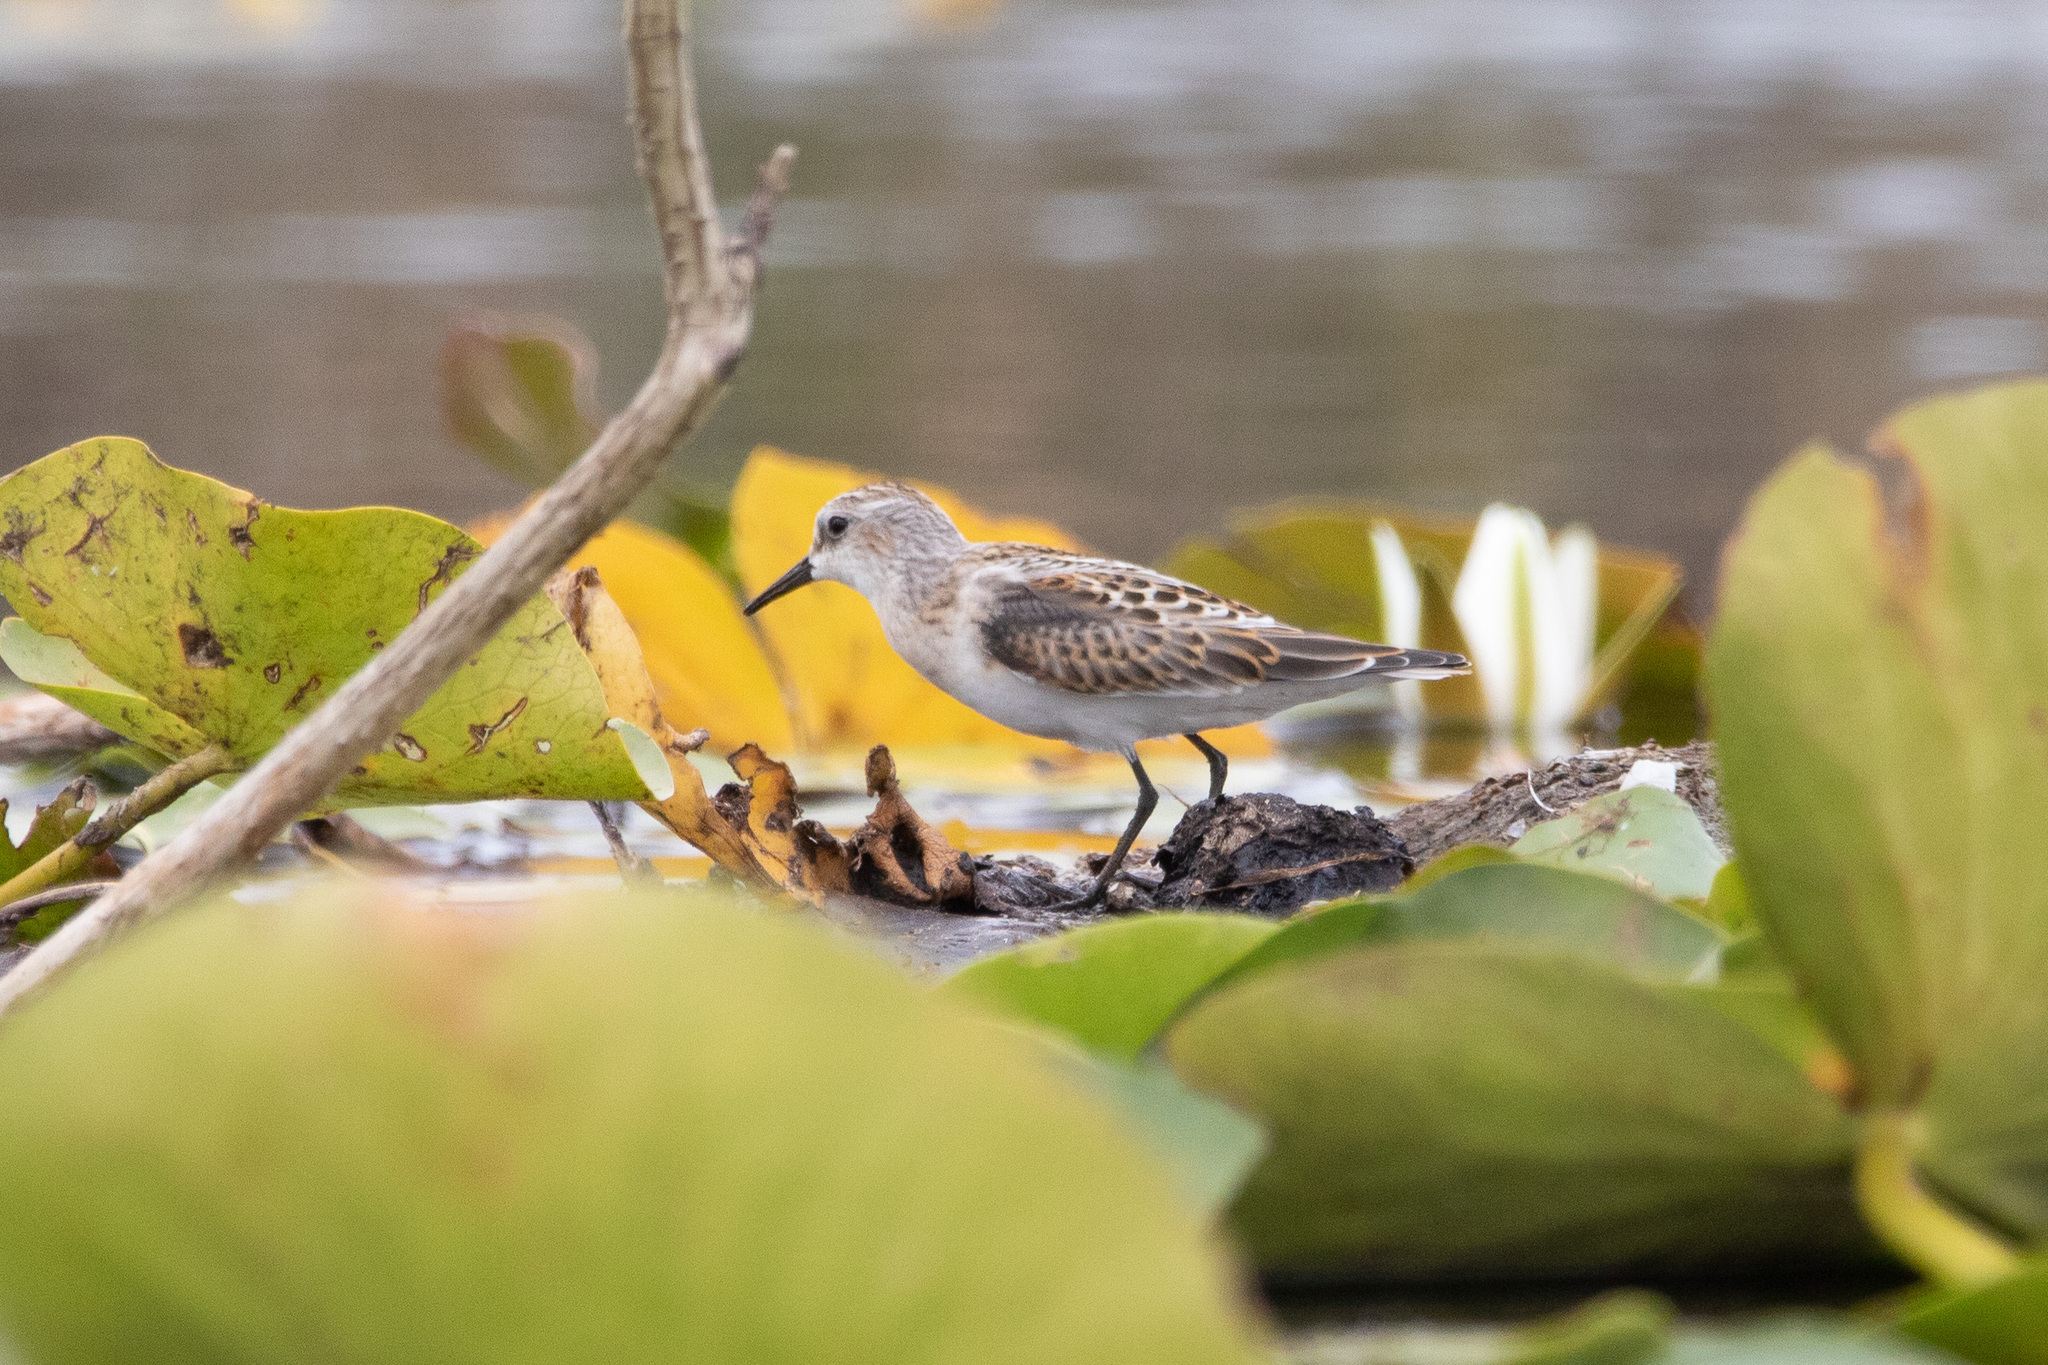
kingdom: Animalia
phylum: Chordata
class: Aves
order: Charadriiformes
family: Scolopacidae
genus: Calidris
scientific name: Calidris minuta
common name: Little stint
